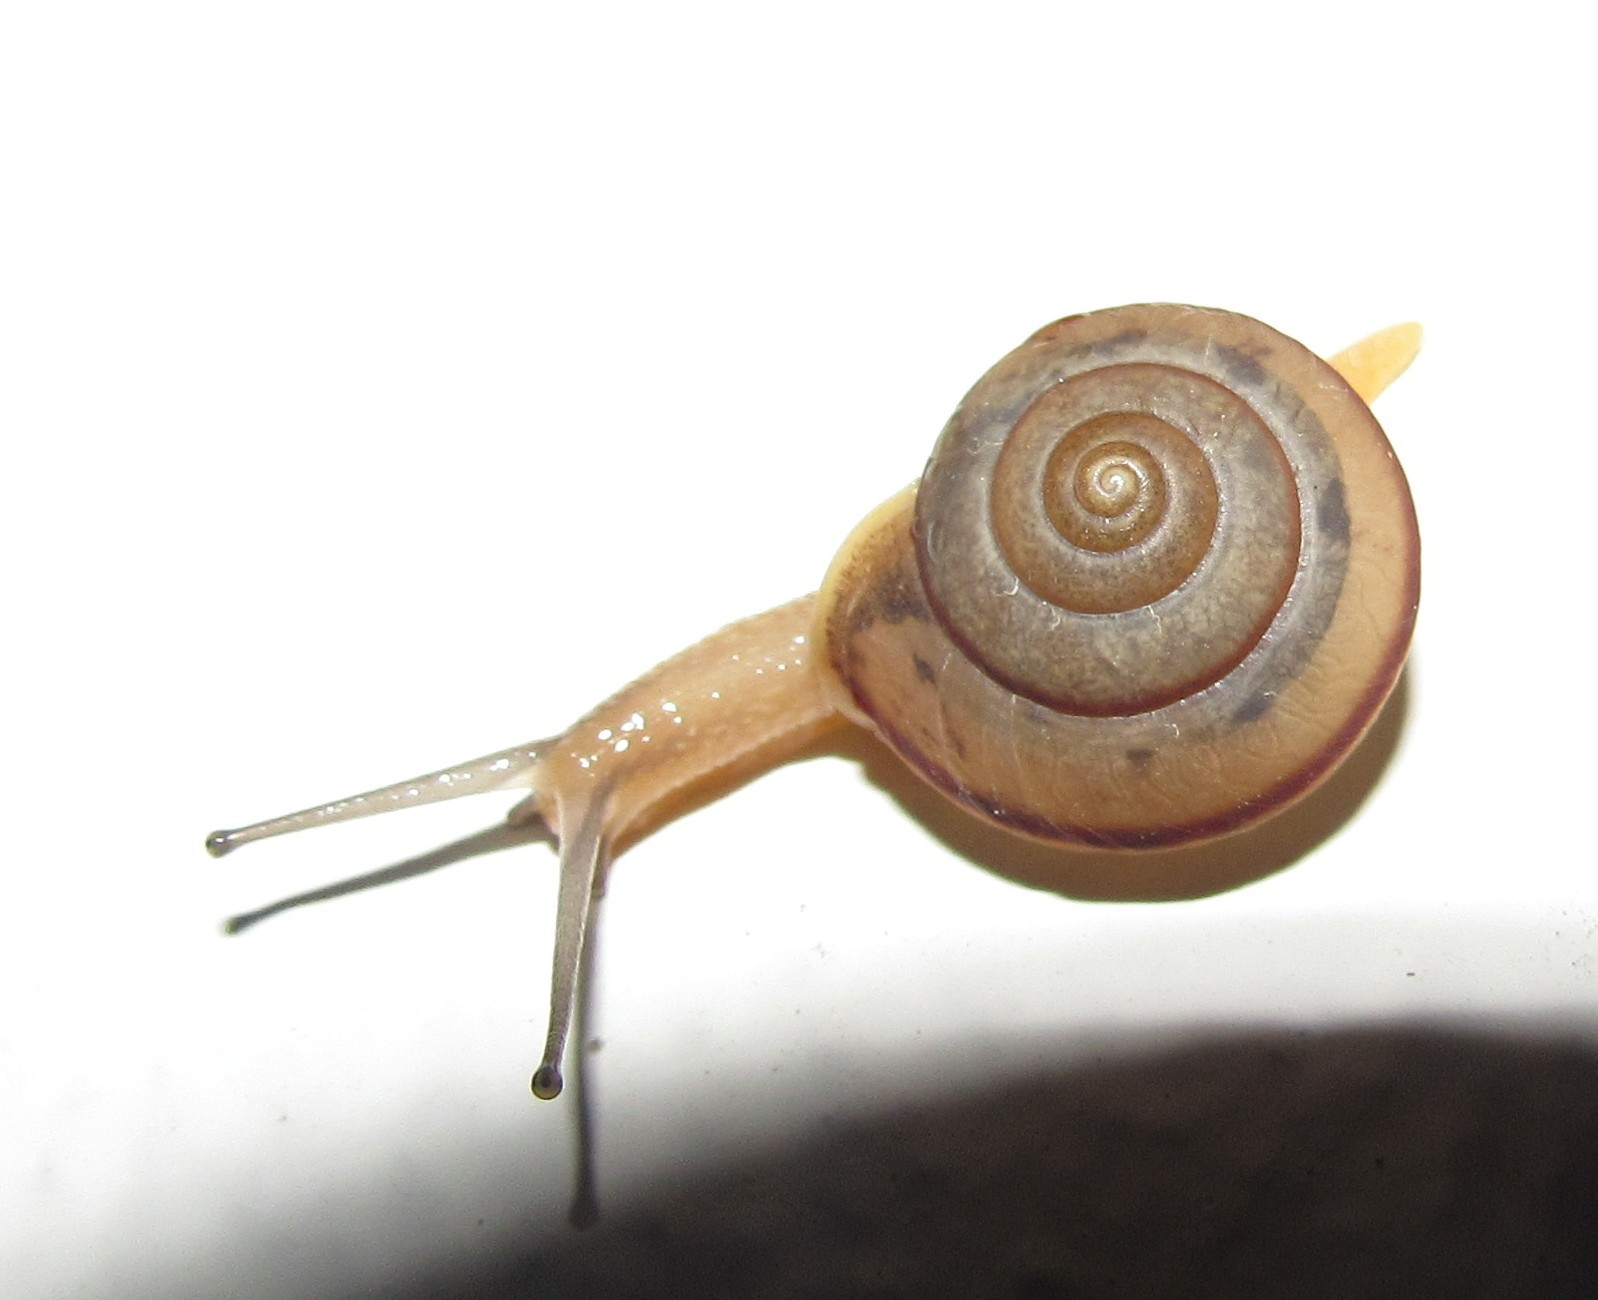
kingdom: Animalia
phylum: Mollusca
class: Gastropoda
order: Stylommatophora
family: Camaenidae
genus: Bradybaena
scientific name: Bradybaena similaris
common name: Asian trampsnail
